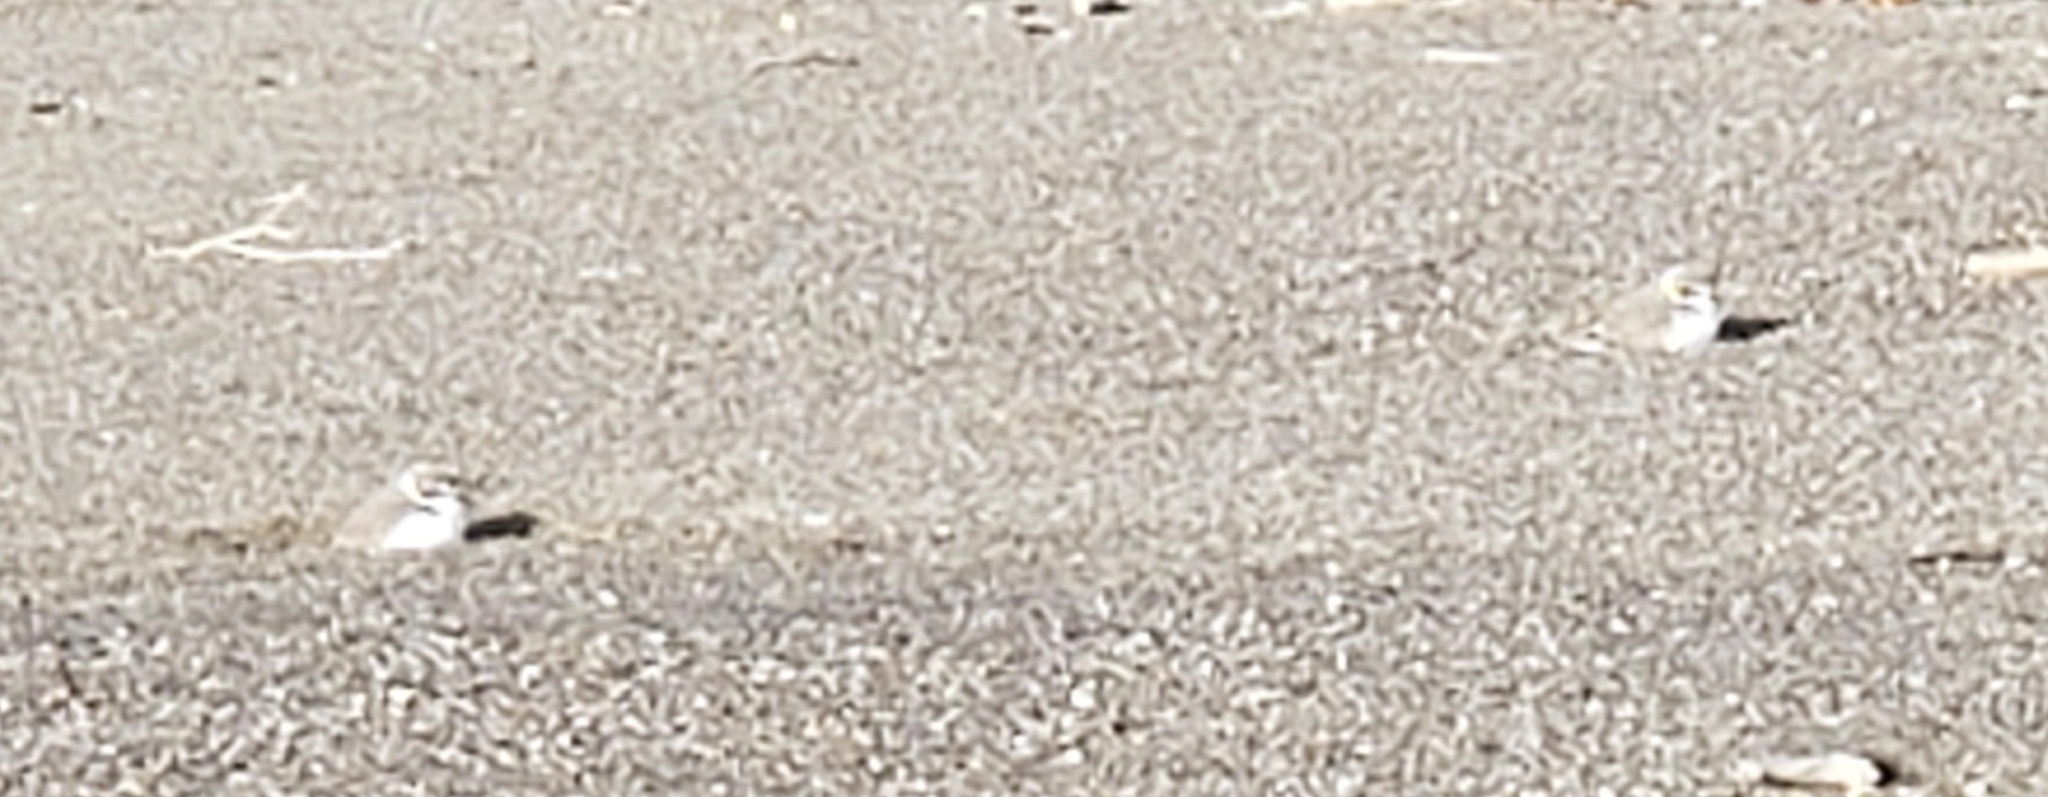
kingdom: Animalia
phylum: Chordata
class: Aves
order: Charadriiformes
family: Charadriidae
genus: Anarhynchus
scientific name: Anarhynchus
